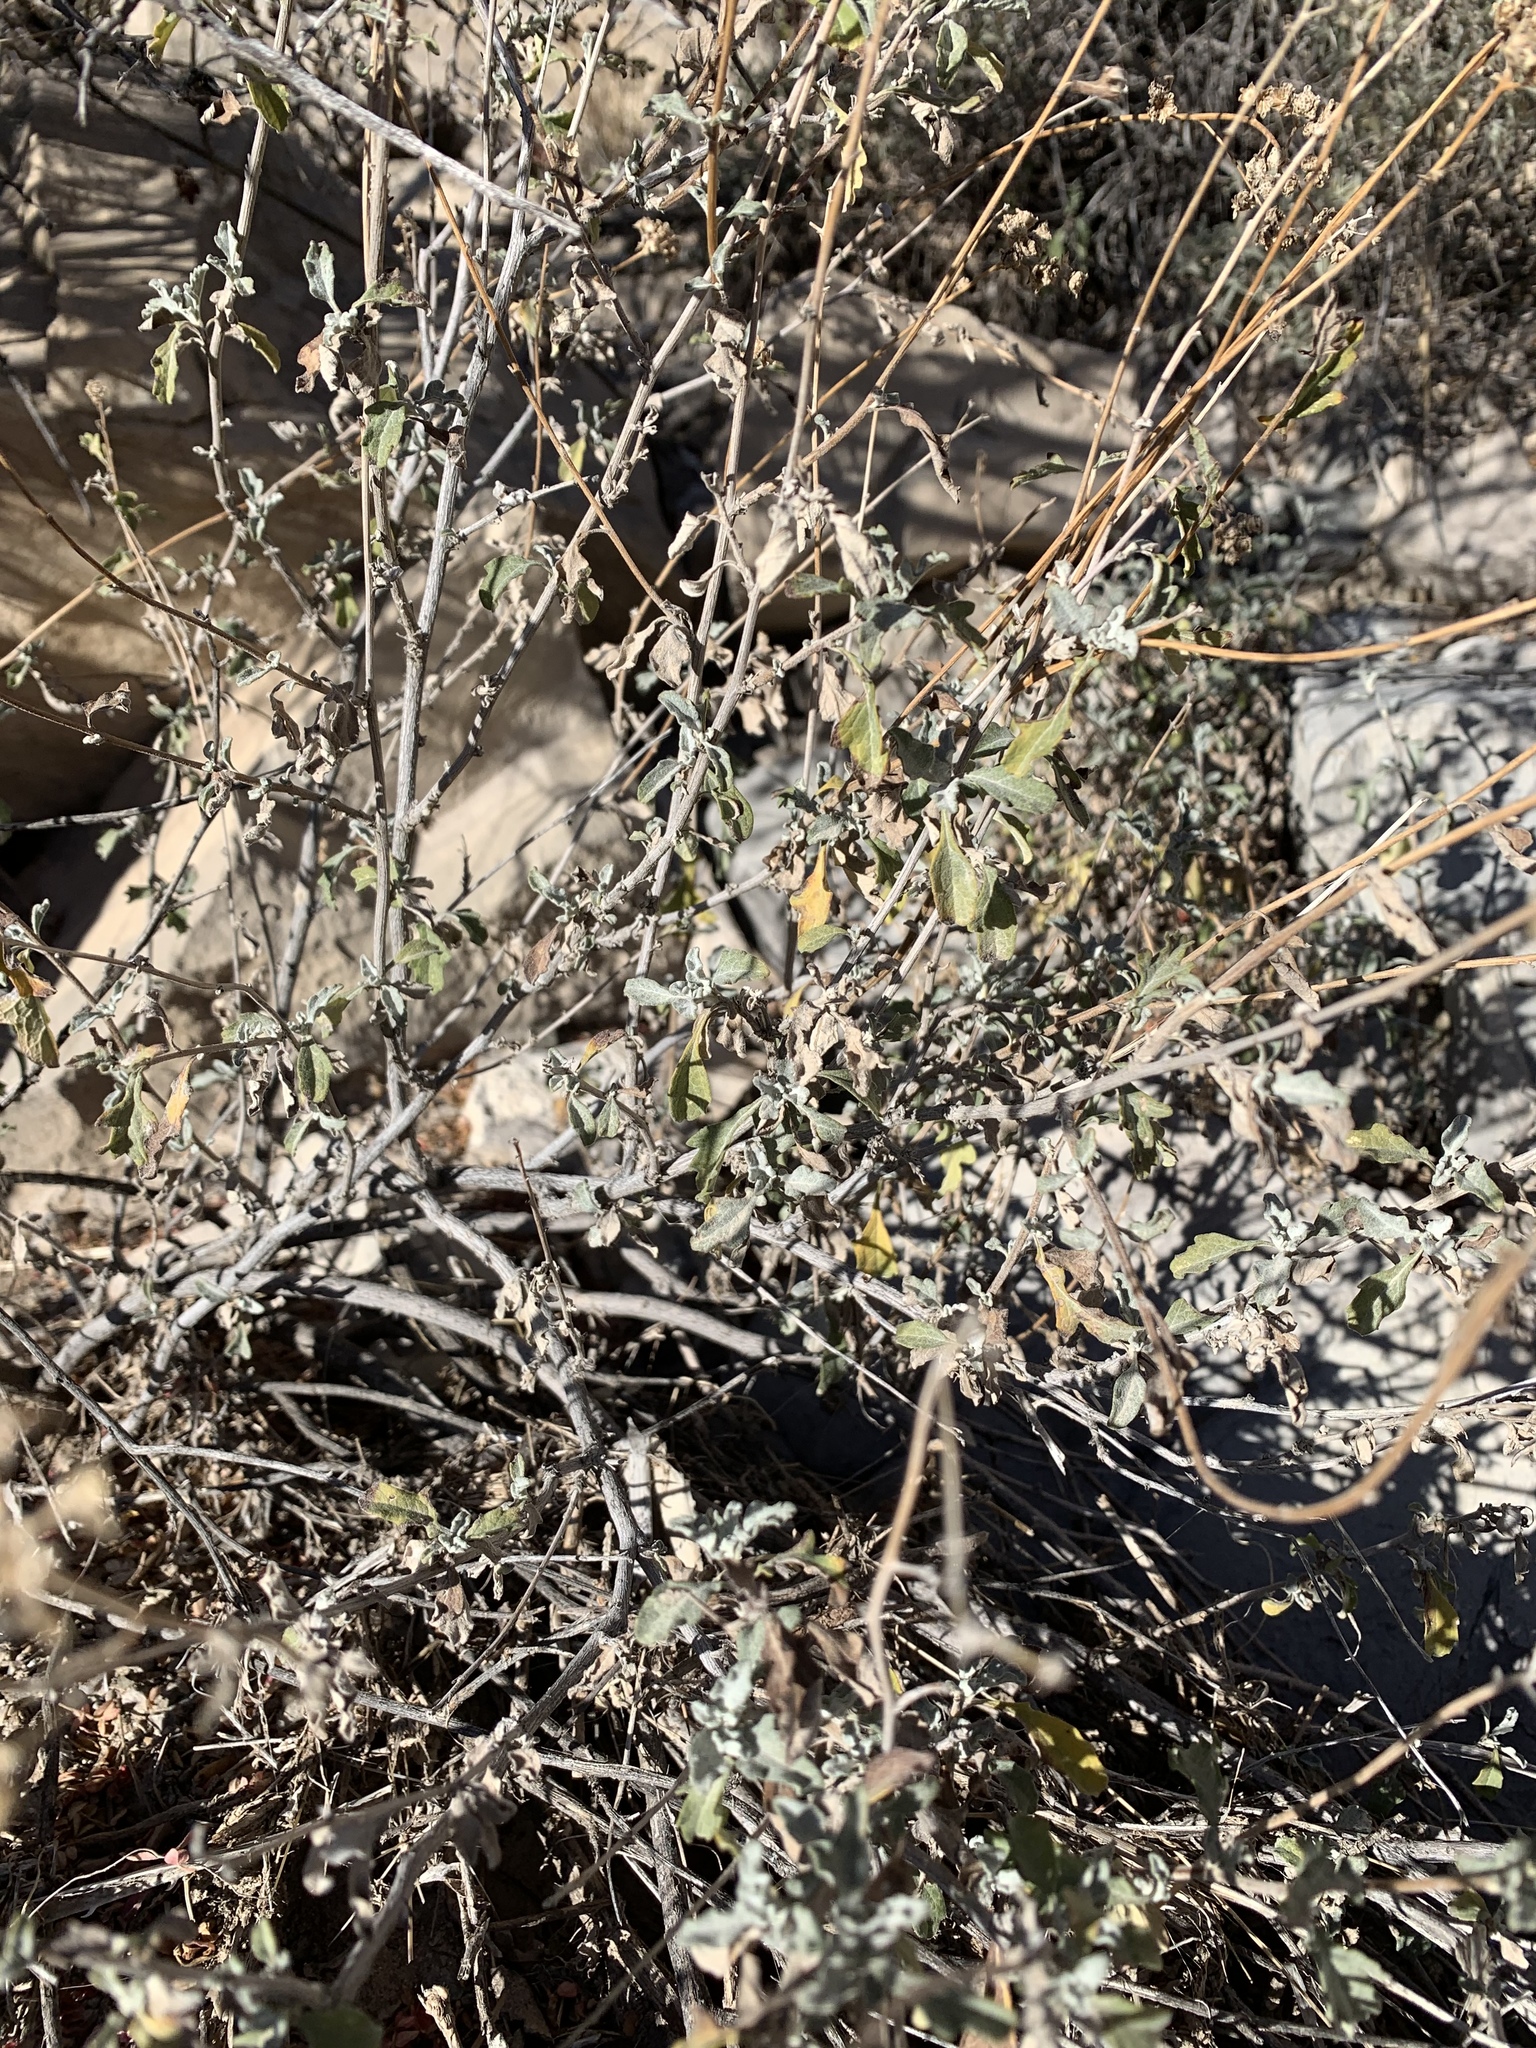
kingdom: Plantae
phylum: Tracheophyta
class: Magnoliopsida
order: Asterales
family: Asteraceae
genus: Parthenium
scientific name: Parthenium incanum
